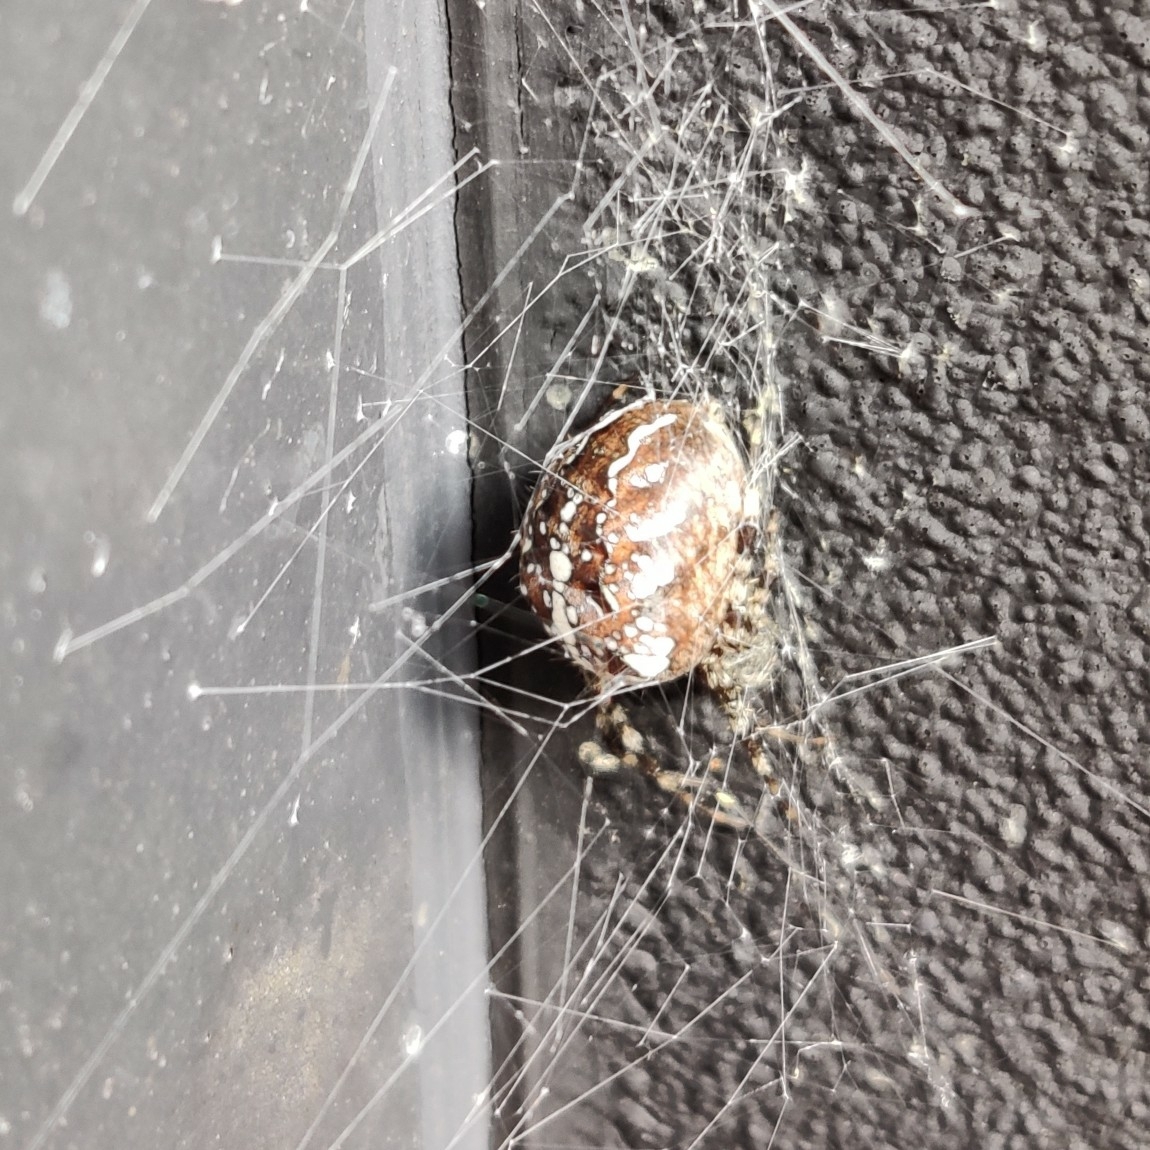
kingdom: Animalia
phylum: Arthropoda
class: Arachnida
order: Araneae
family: Araneidae
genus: Araneus
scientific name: Araneus diadematus
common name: Cross orbweaver
